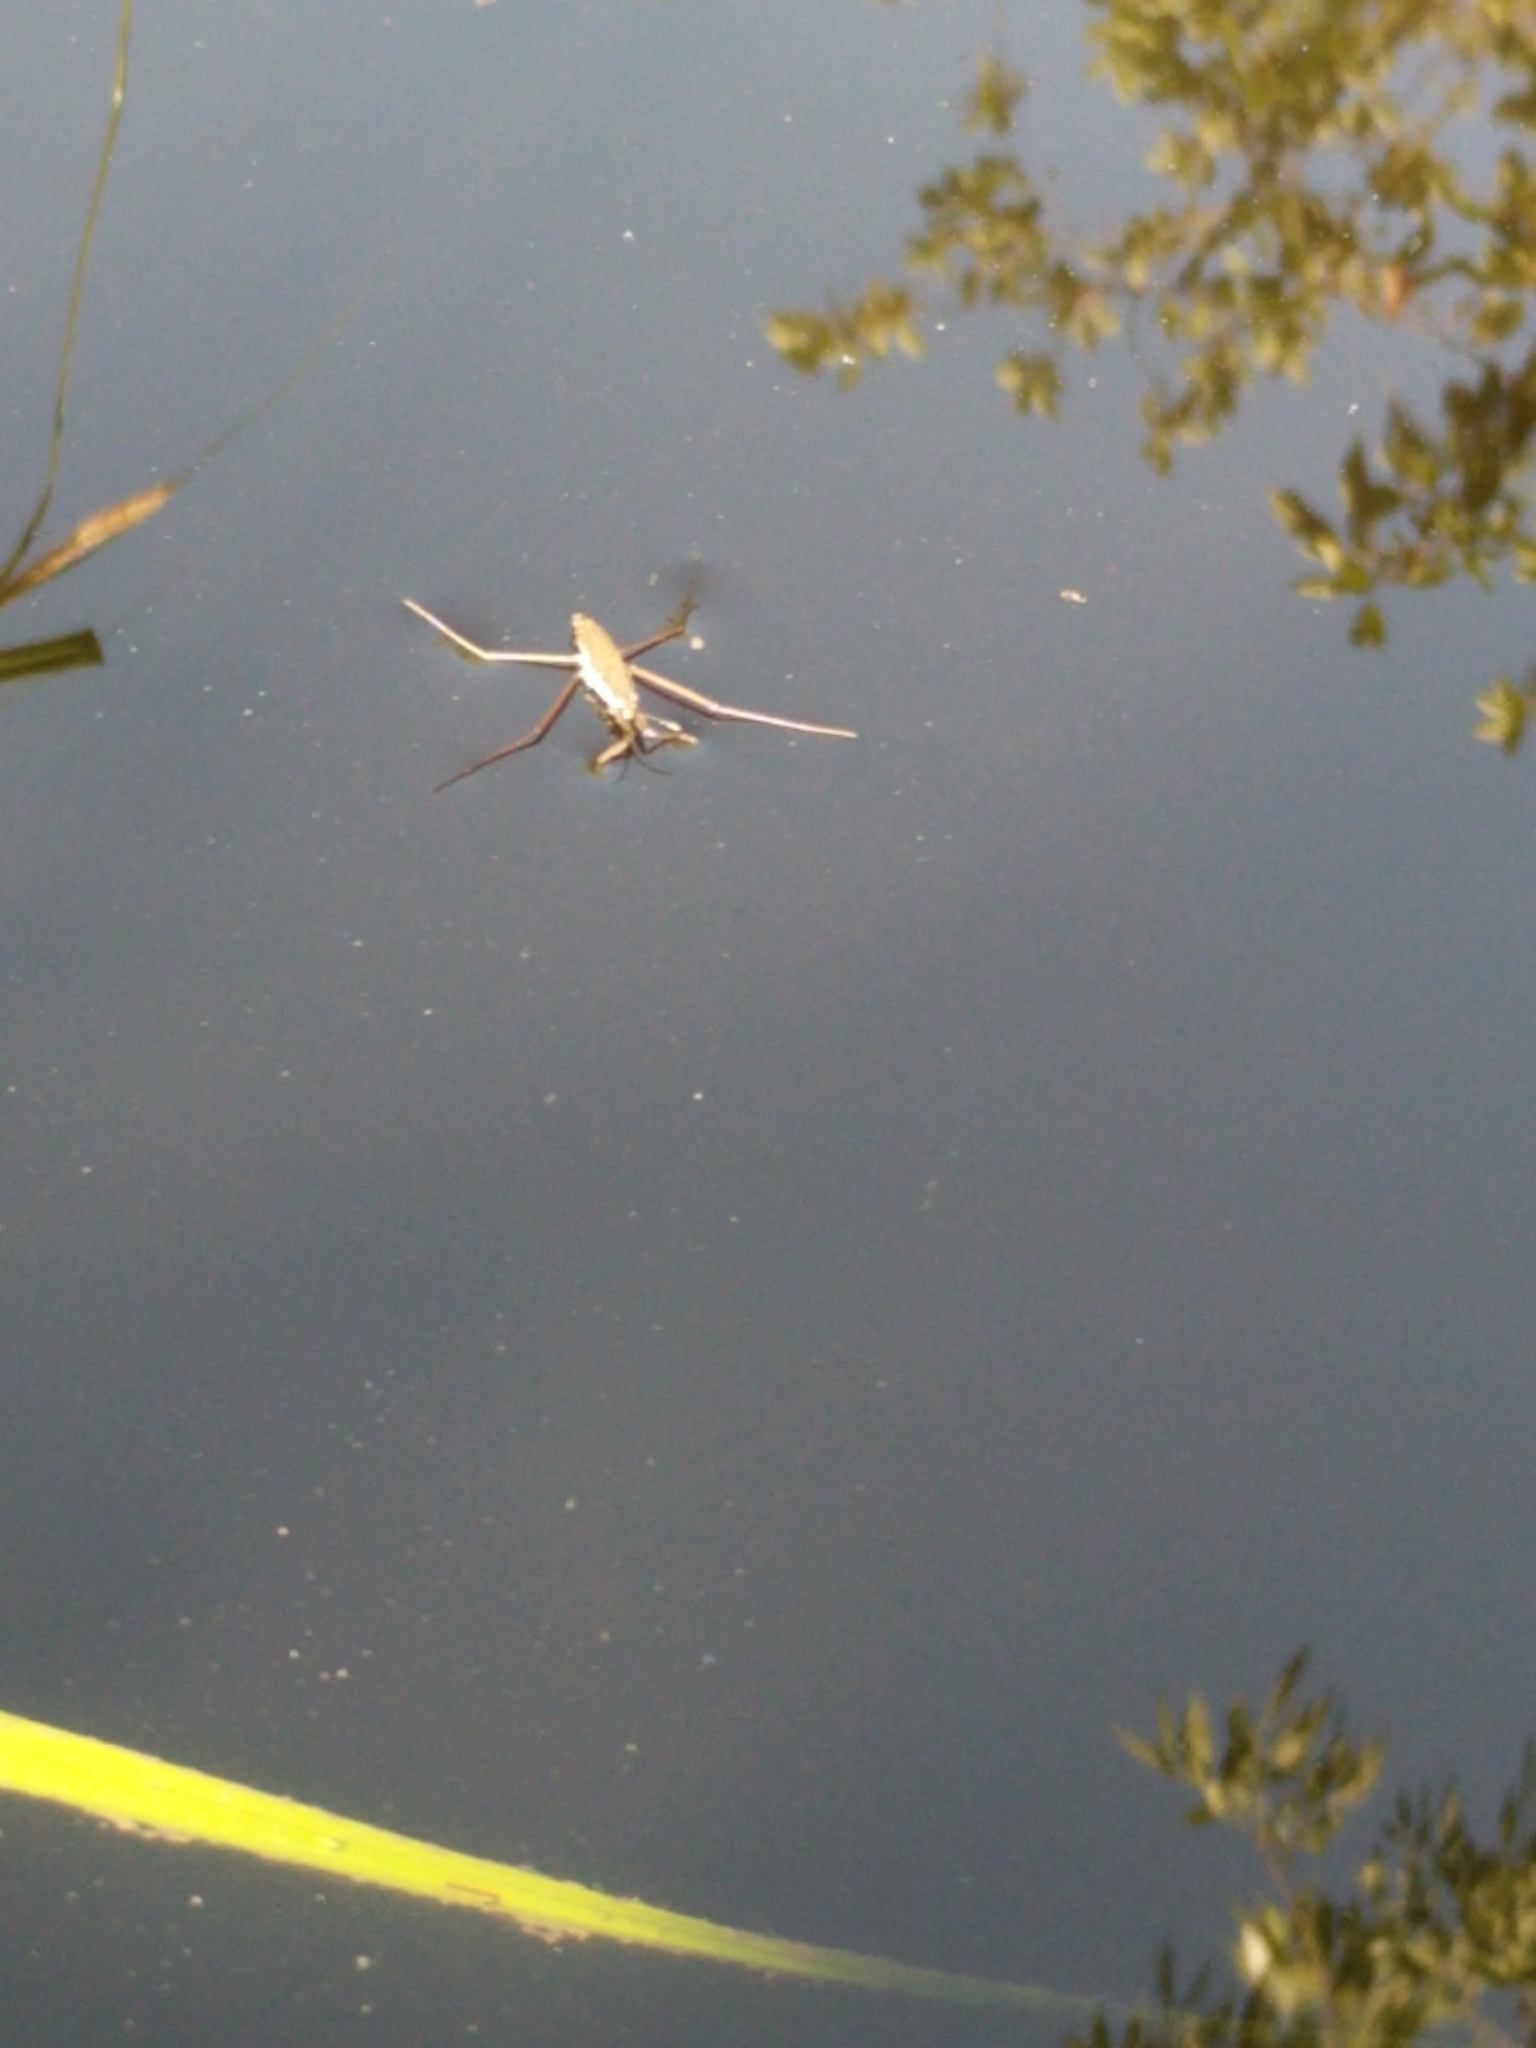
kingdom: Animalia
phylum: Arthropoda
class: Insecta
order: Hemiptera
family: Gerridae
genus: Aquarius
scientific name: Aquarius remigis
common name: Common water strider
